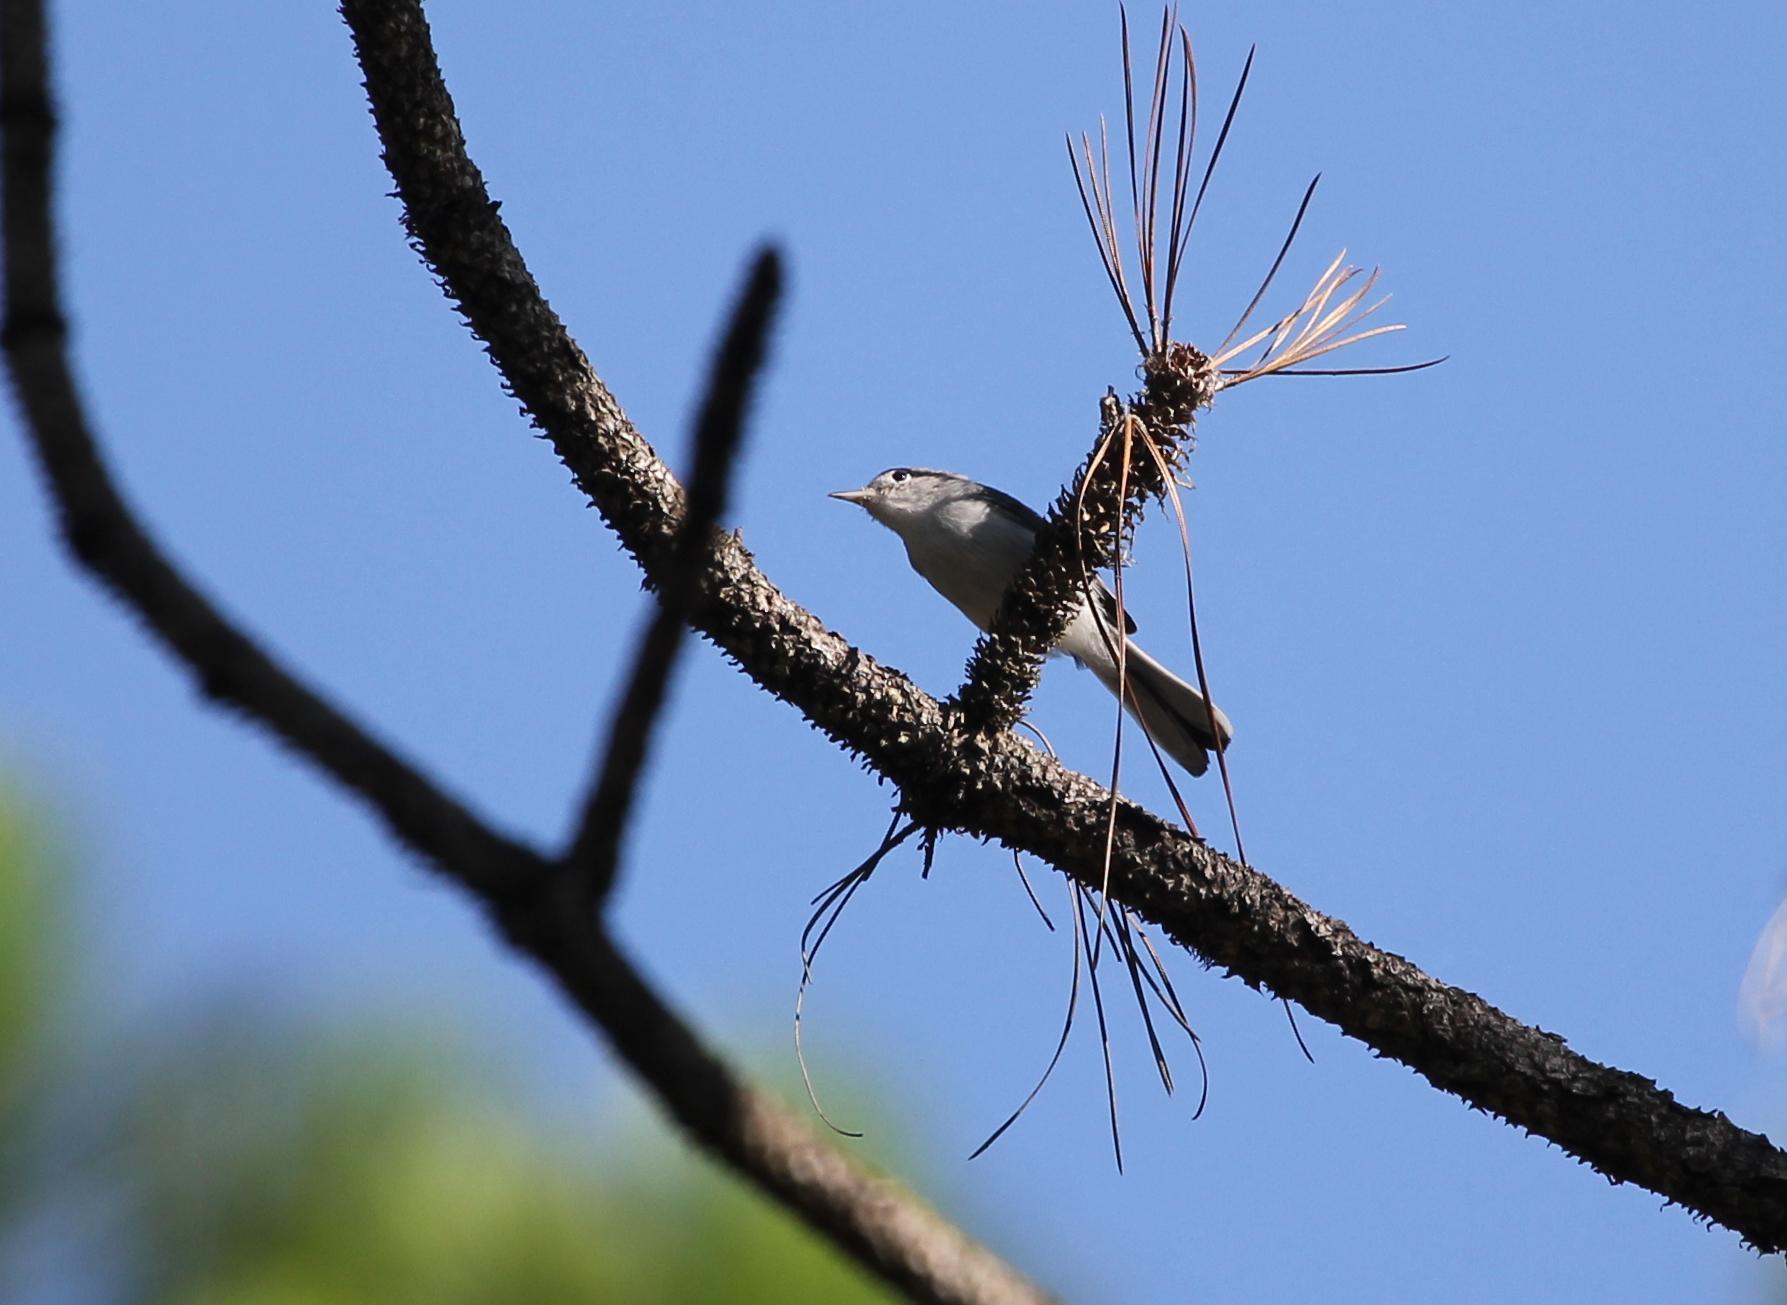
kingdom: Animalia
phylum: Chordata
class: Aves
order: Passeriformes
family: Polioptilidae
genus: Polioptila
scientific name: Polioptila caerulea
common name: Blue-gray gnatcatcher
